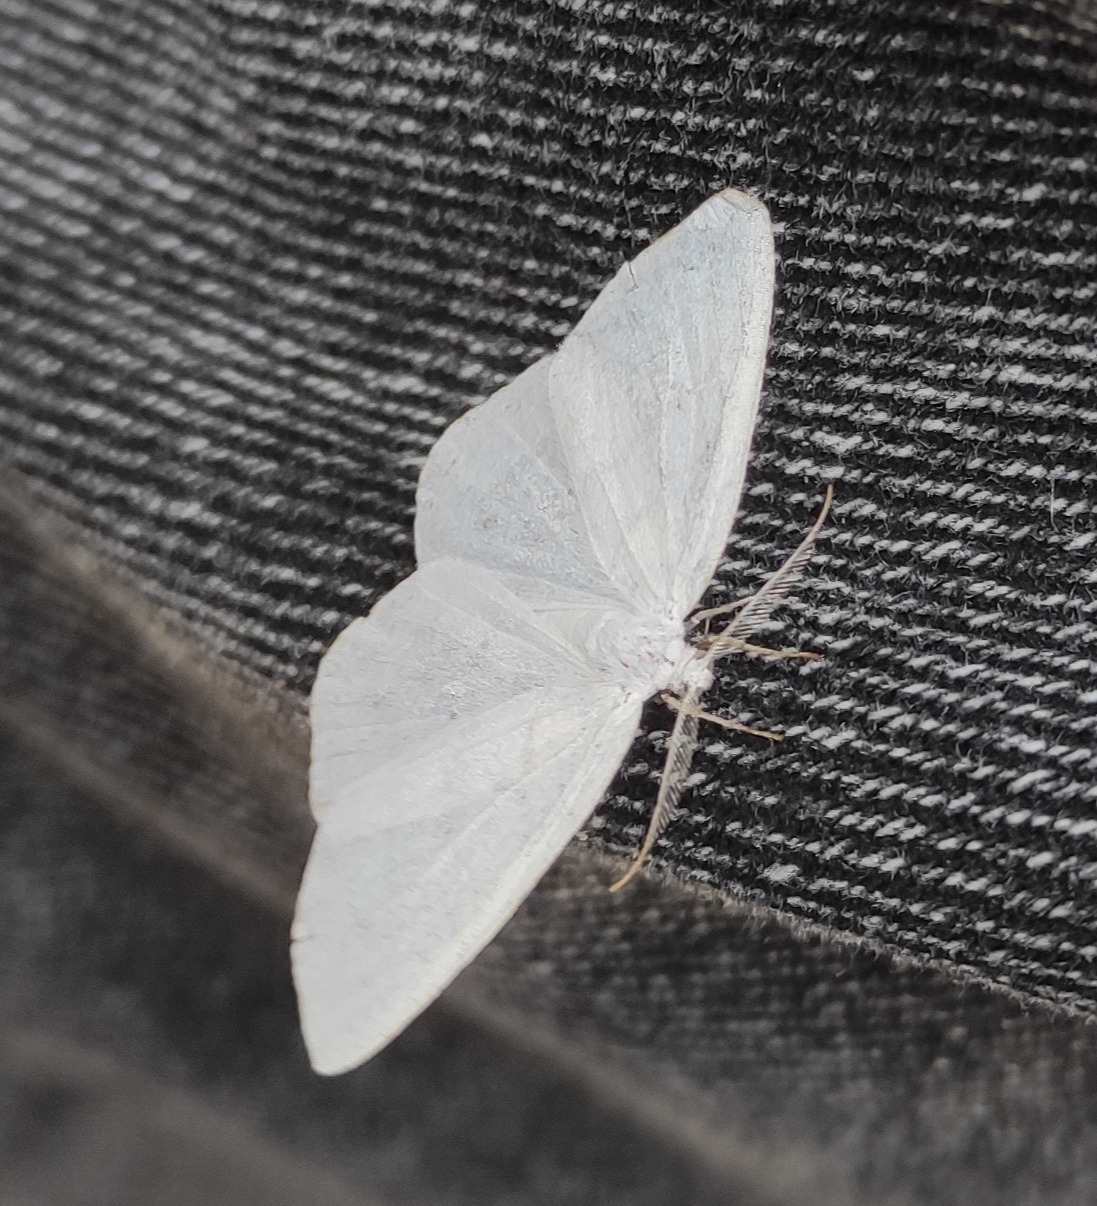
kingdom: Animalia
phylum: Arthropoda
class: Insecta
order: Lepidoptera
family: Geometridae
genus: Cabera
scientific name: Cabera pusaria
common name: Common white wave
